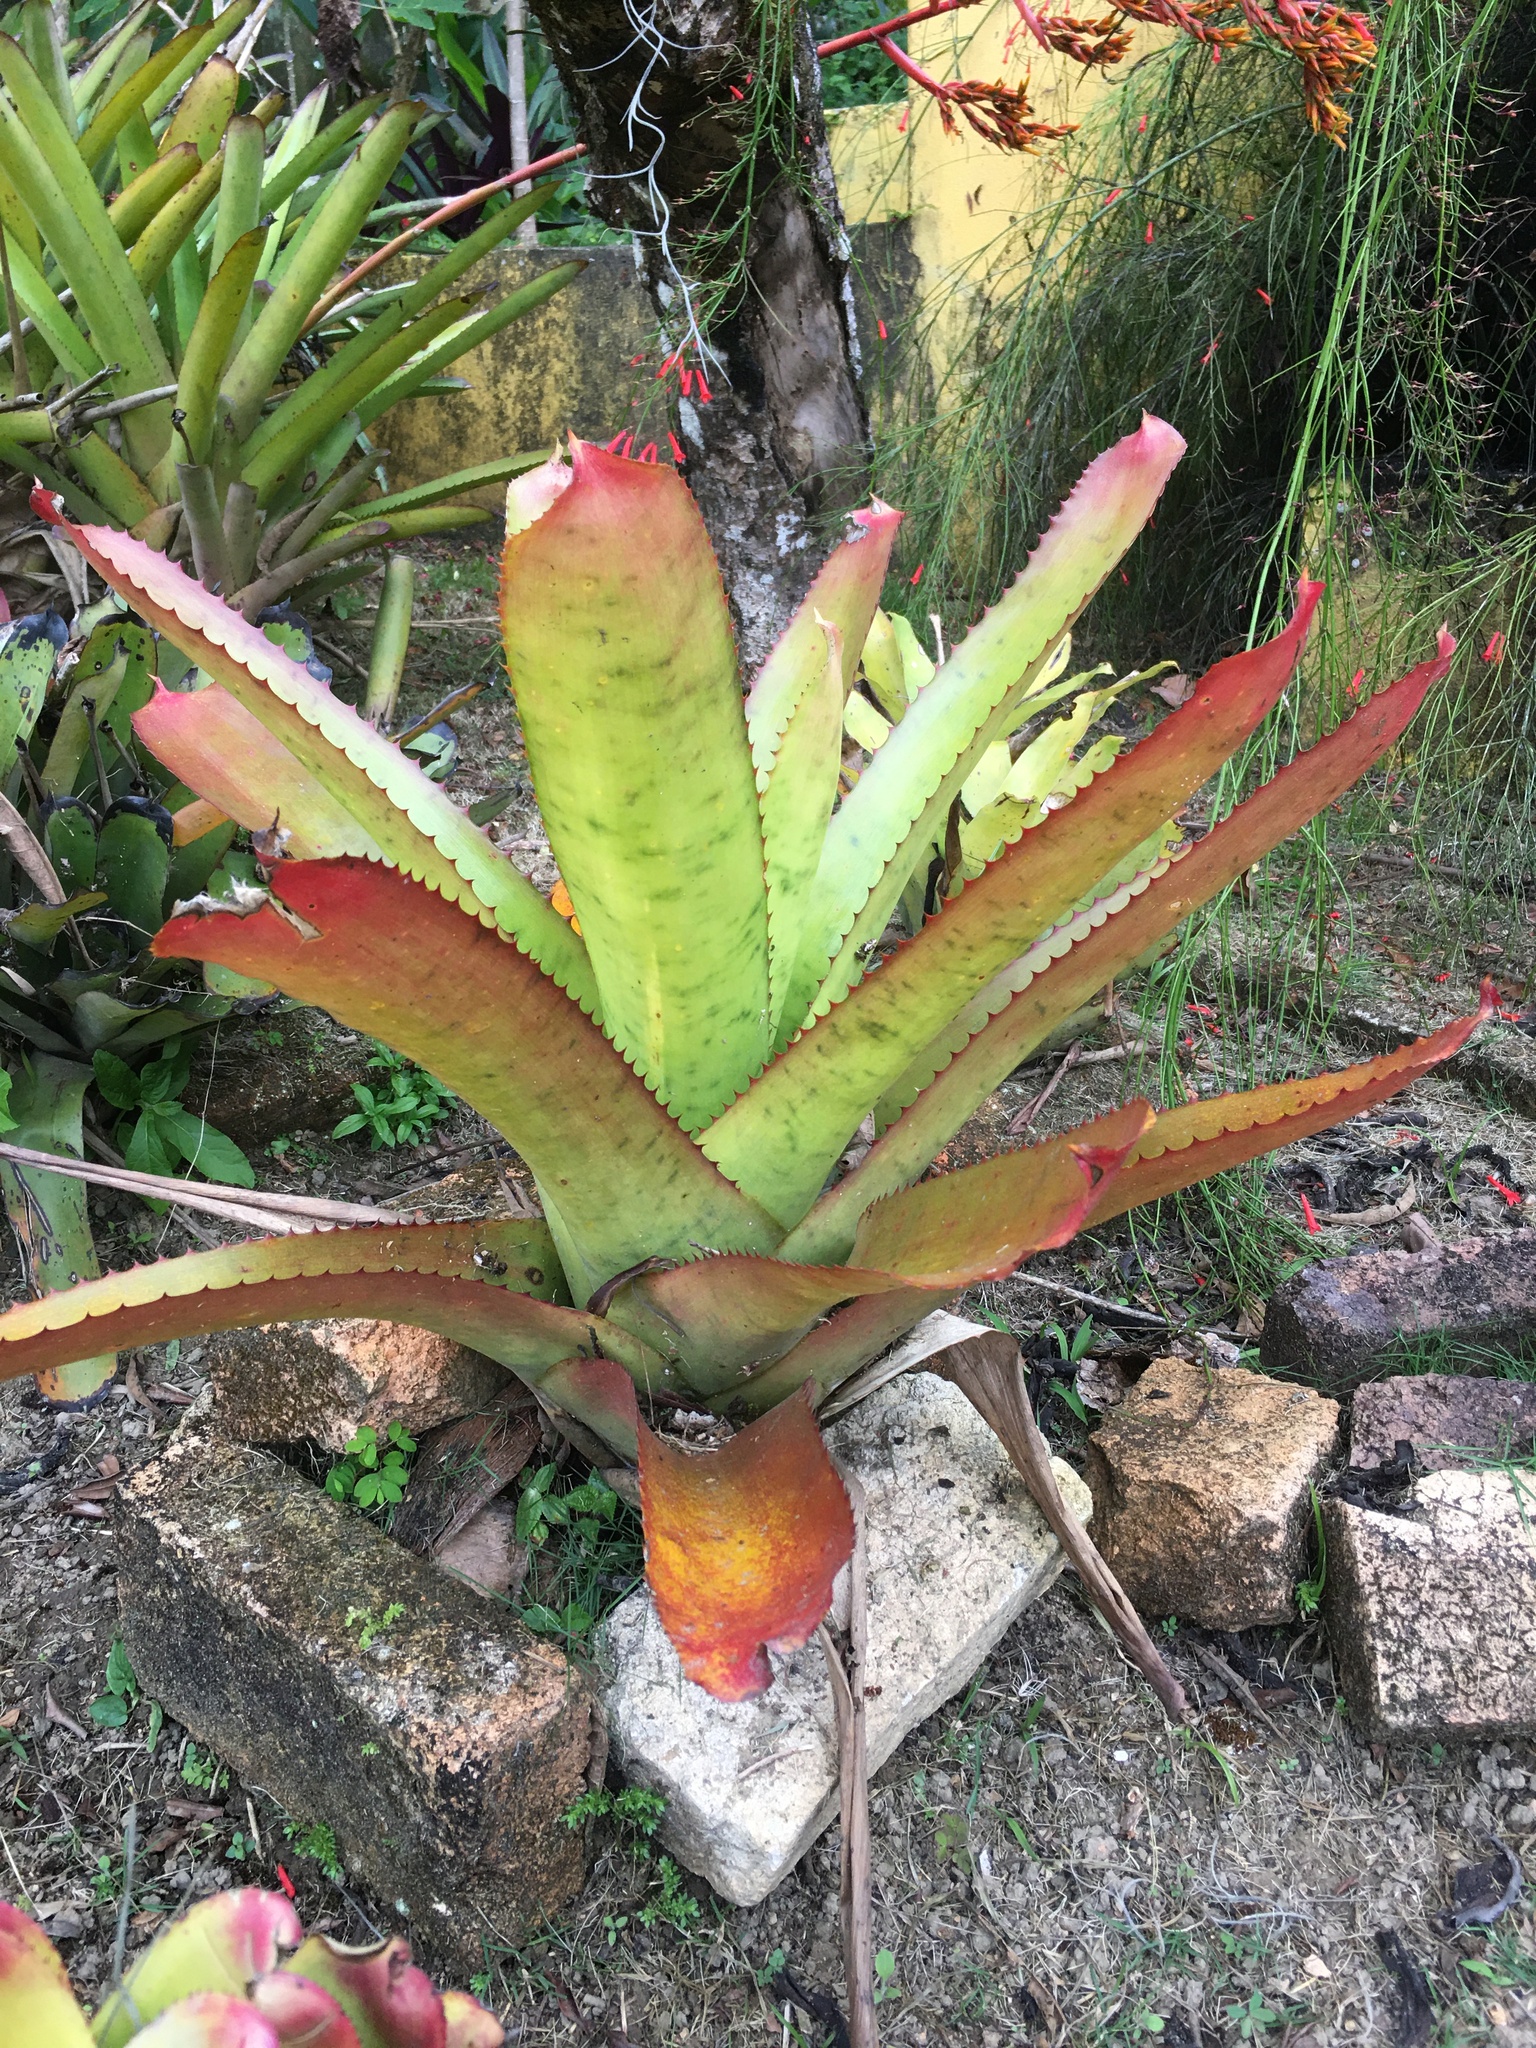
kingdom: Plantae
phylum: Tracheophyta
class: Liliopsida
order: Poales
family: Bromeliaceae
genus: Neoregelia
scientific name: Neoregelia pernambucana
